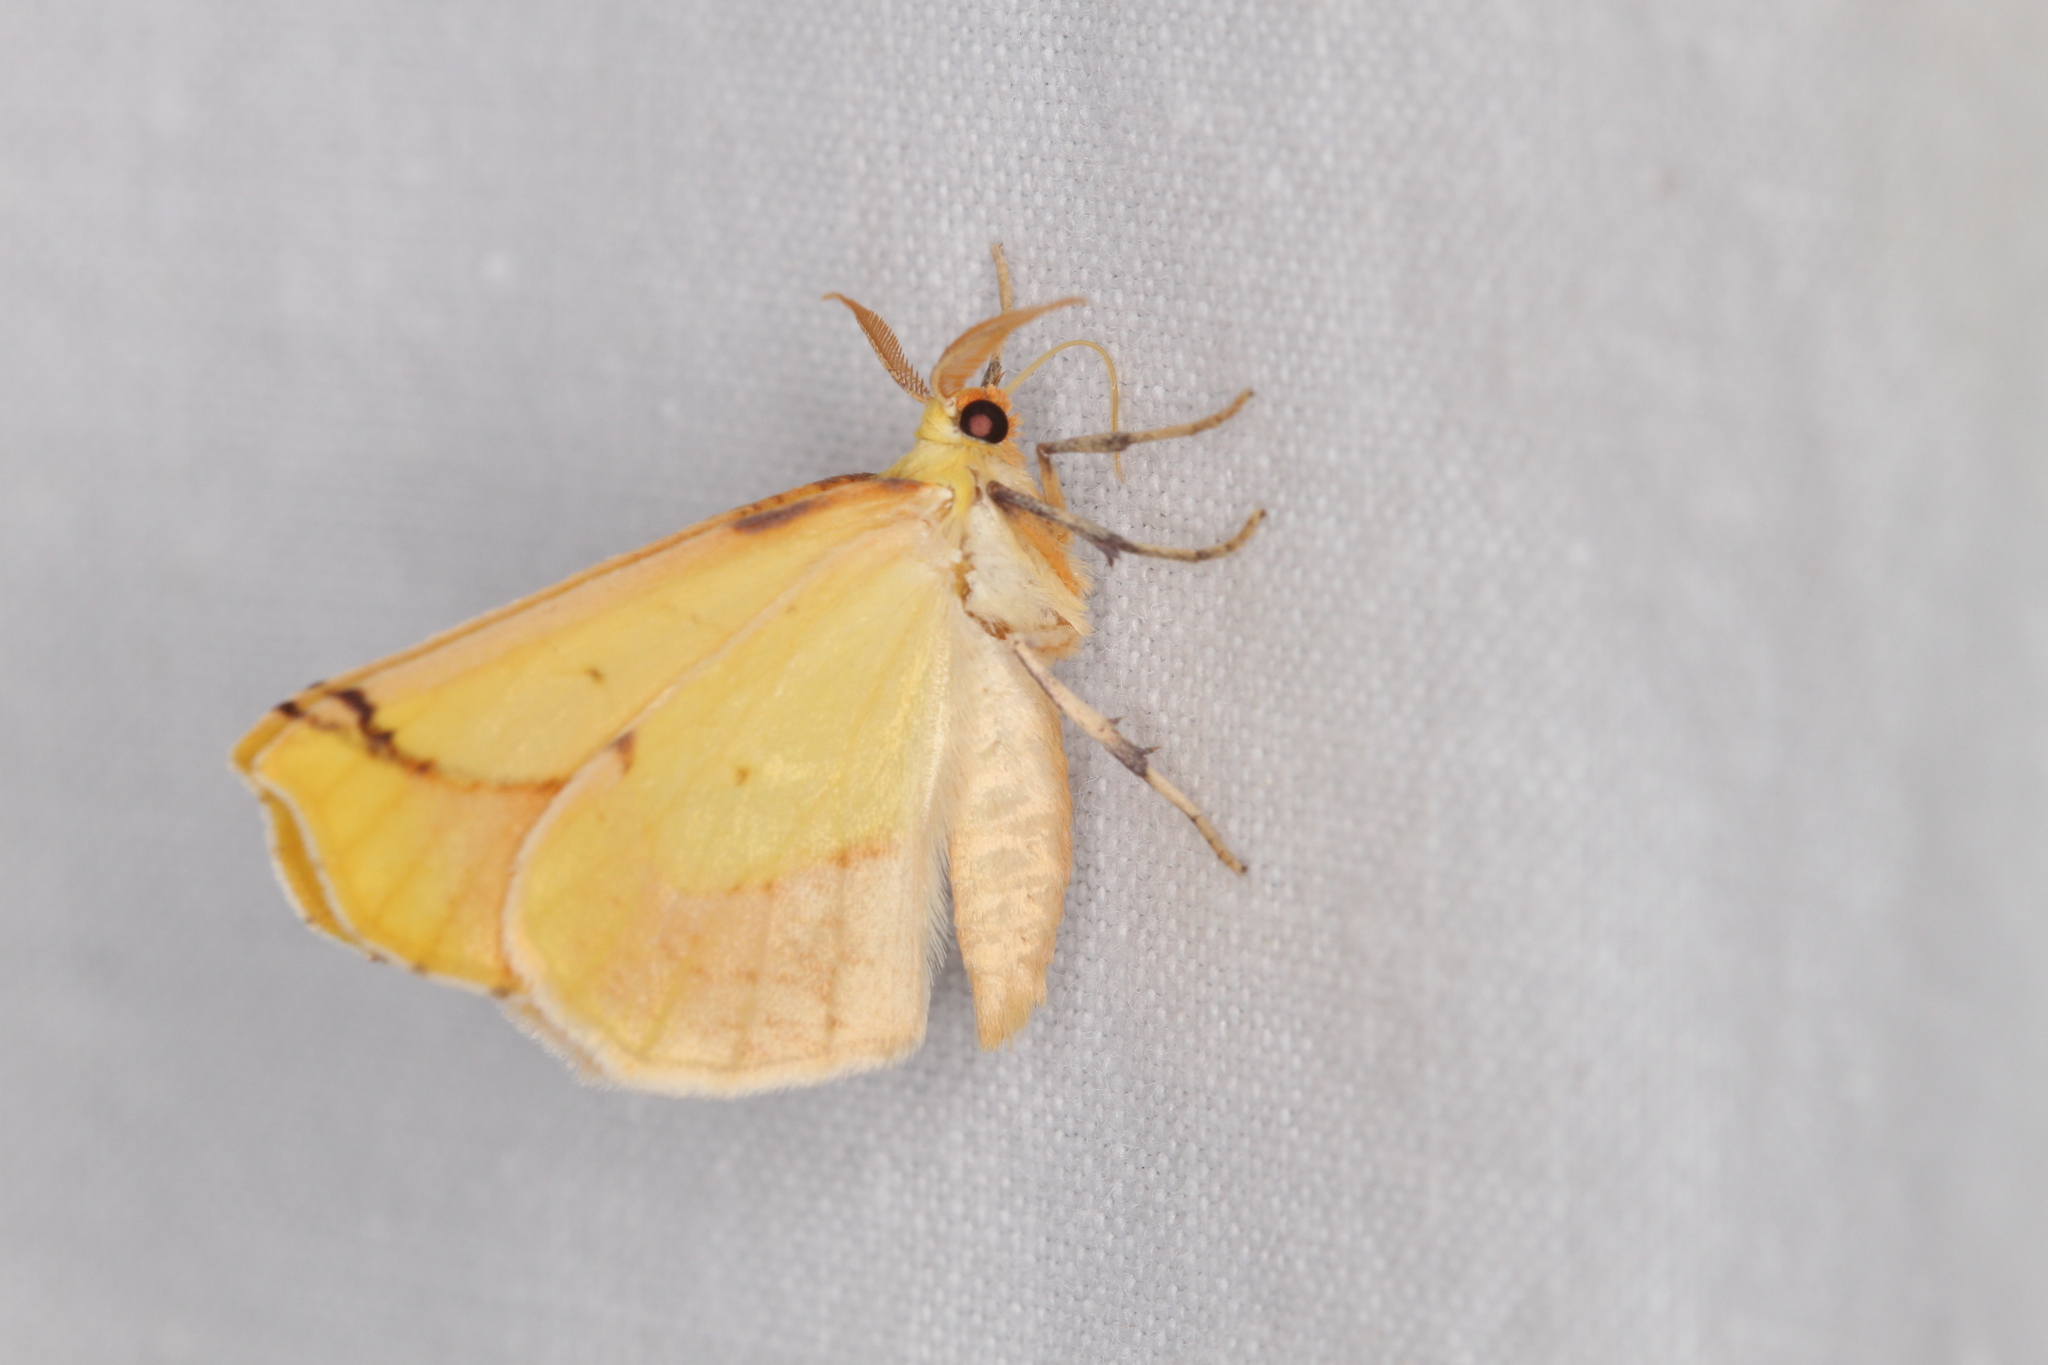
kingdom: Animalia
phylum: Arthropoda
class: Insecta
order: Lepidoptera
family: Erebidae
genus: Ctenucha
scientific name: Ctenucha virginica
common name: Virginia ctenucha moth
